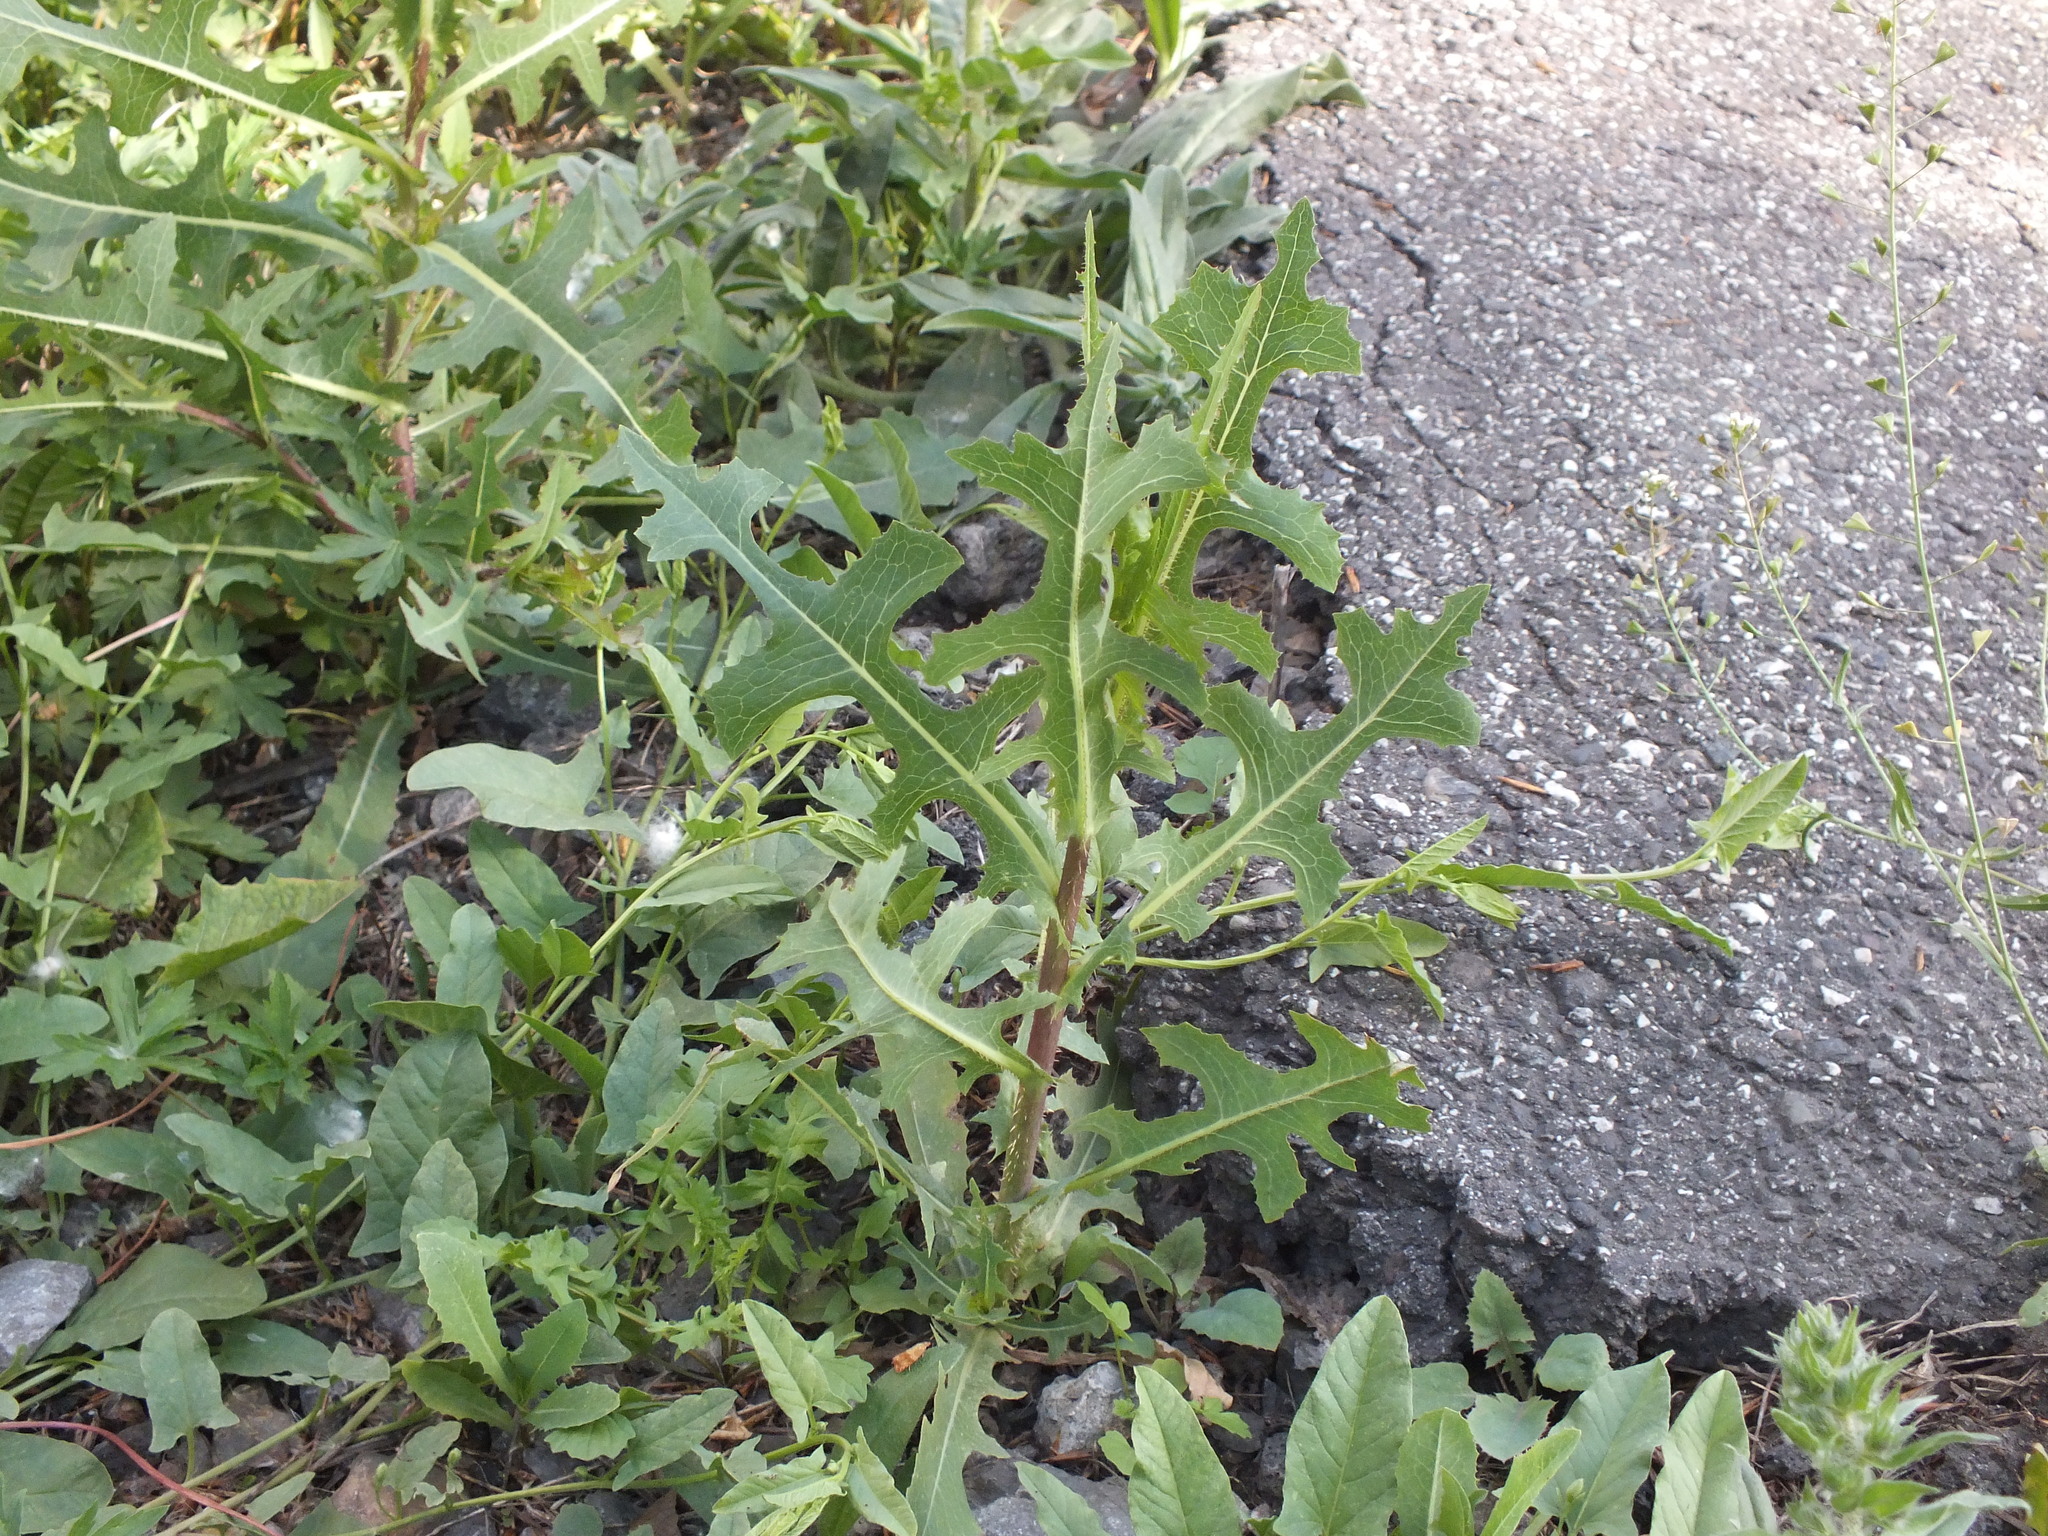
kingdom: Plantae
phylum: Tracheophyta
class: Magnoliopsida
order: Asterales
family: Asteraceae
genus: Lactuca
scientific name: Lactuca serriola
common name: Prickly lettuce
